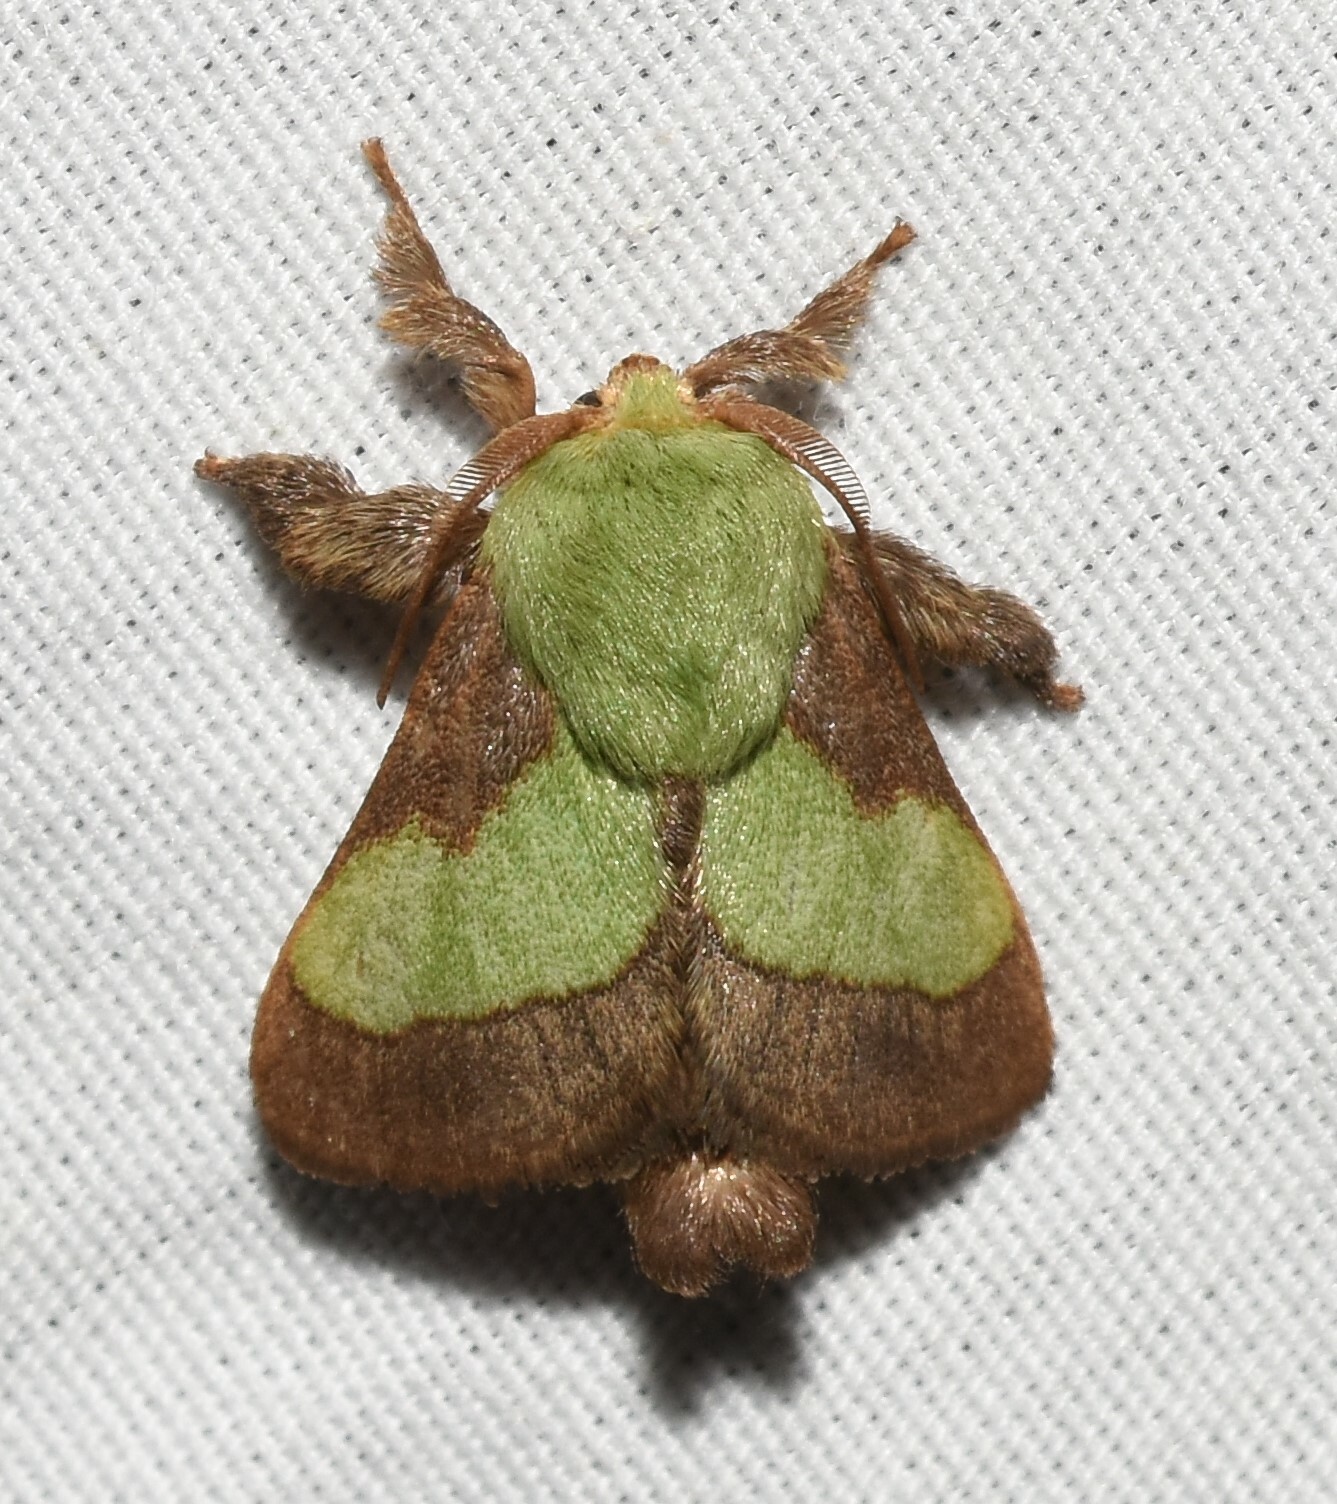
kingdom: Animalia
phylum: Arthropoda
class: Insecta
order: Lepidoptera
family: Limacodidae
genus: Parasa
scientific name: Parasa chloris
